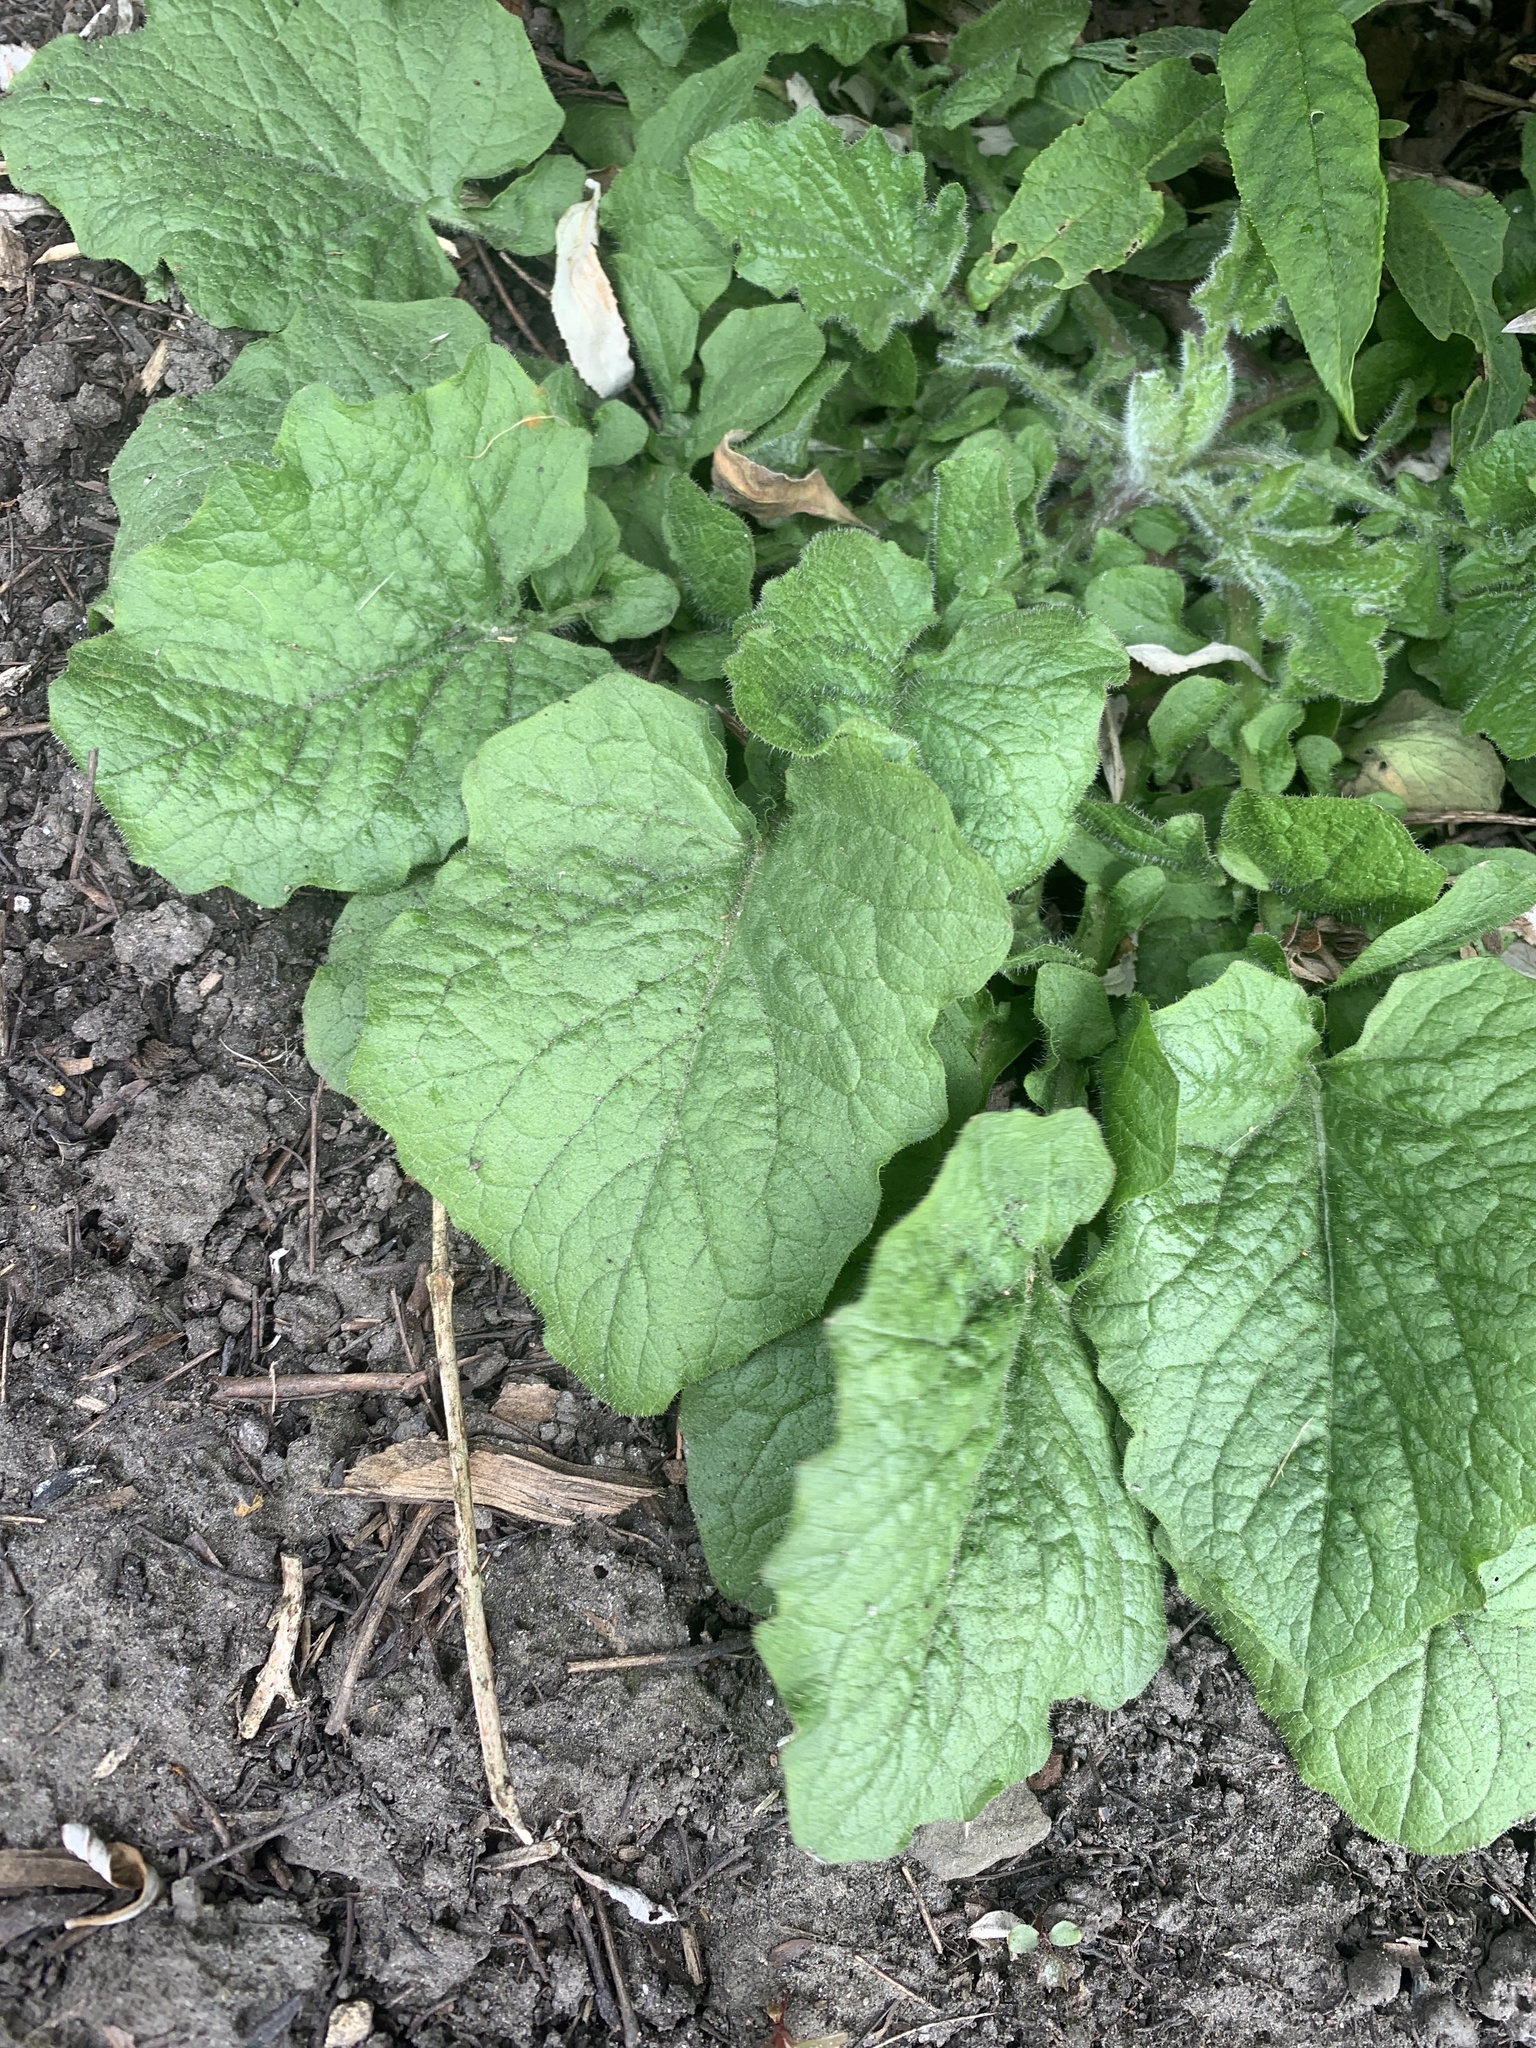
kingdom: Plantae
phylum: Tracheophyta
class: Magnoliopsida
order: Asterales
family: Asteraceae
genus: Lapsana
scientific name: Lapsana communis
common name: Nipplewort
